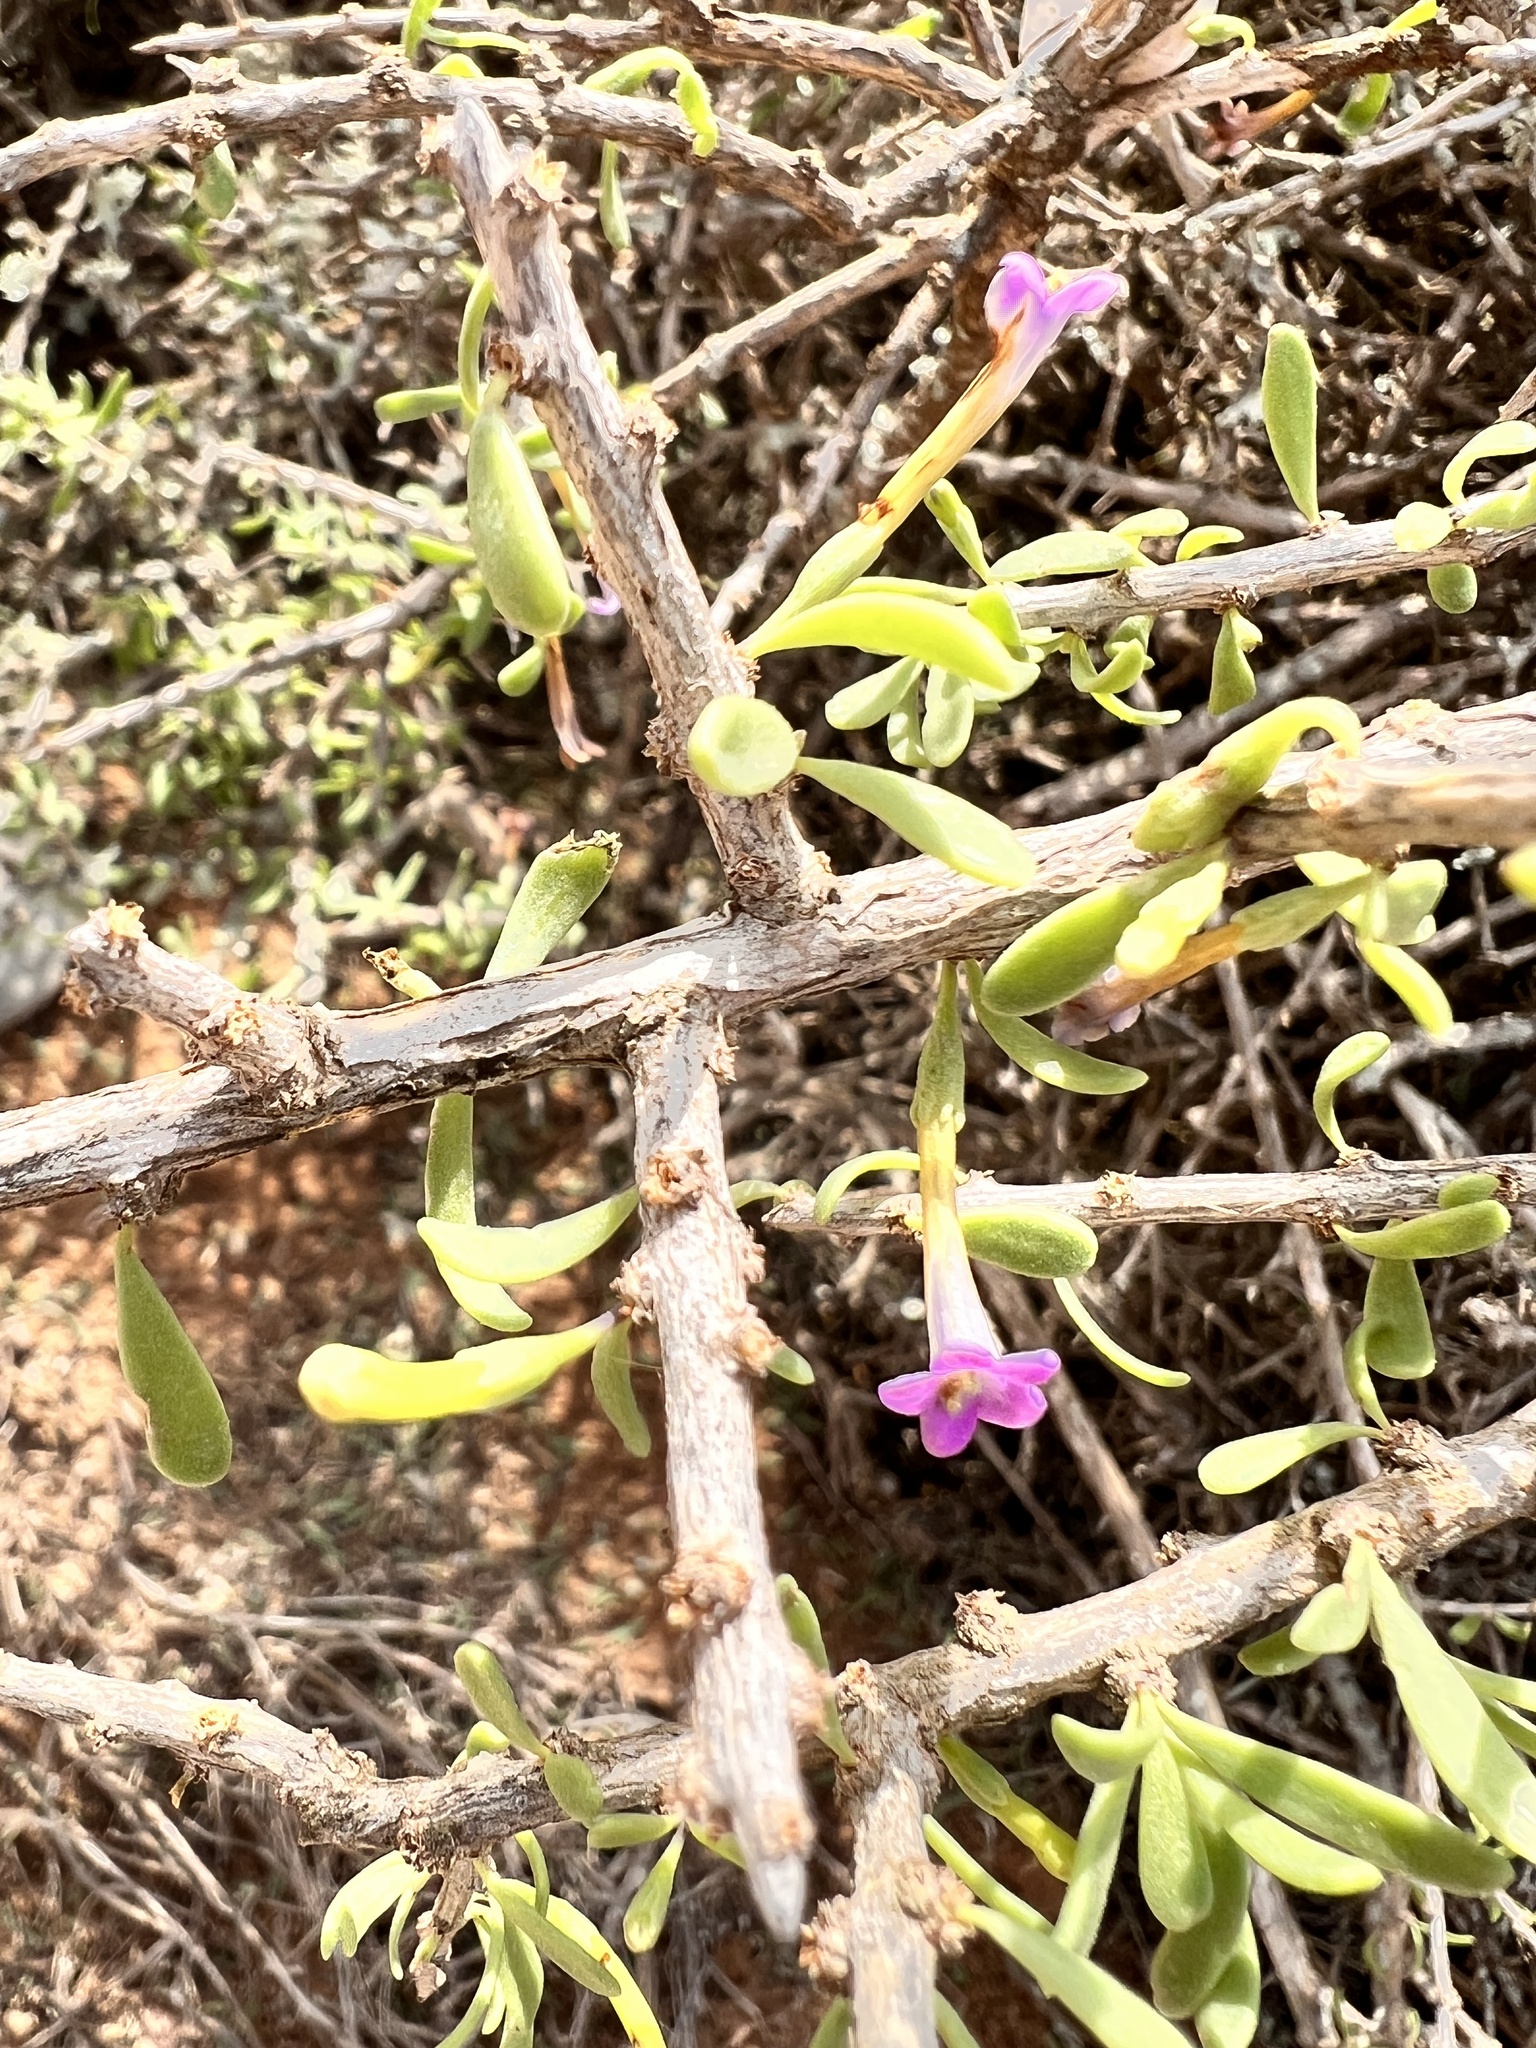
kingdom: Plantae
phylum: Tracheophyta
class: Magnoliopsida
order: Solanales
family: Solanaceae
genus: Lycium
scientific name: Lycium intricatum
